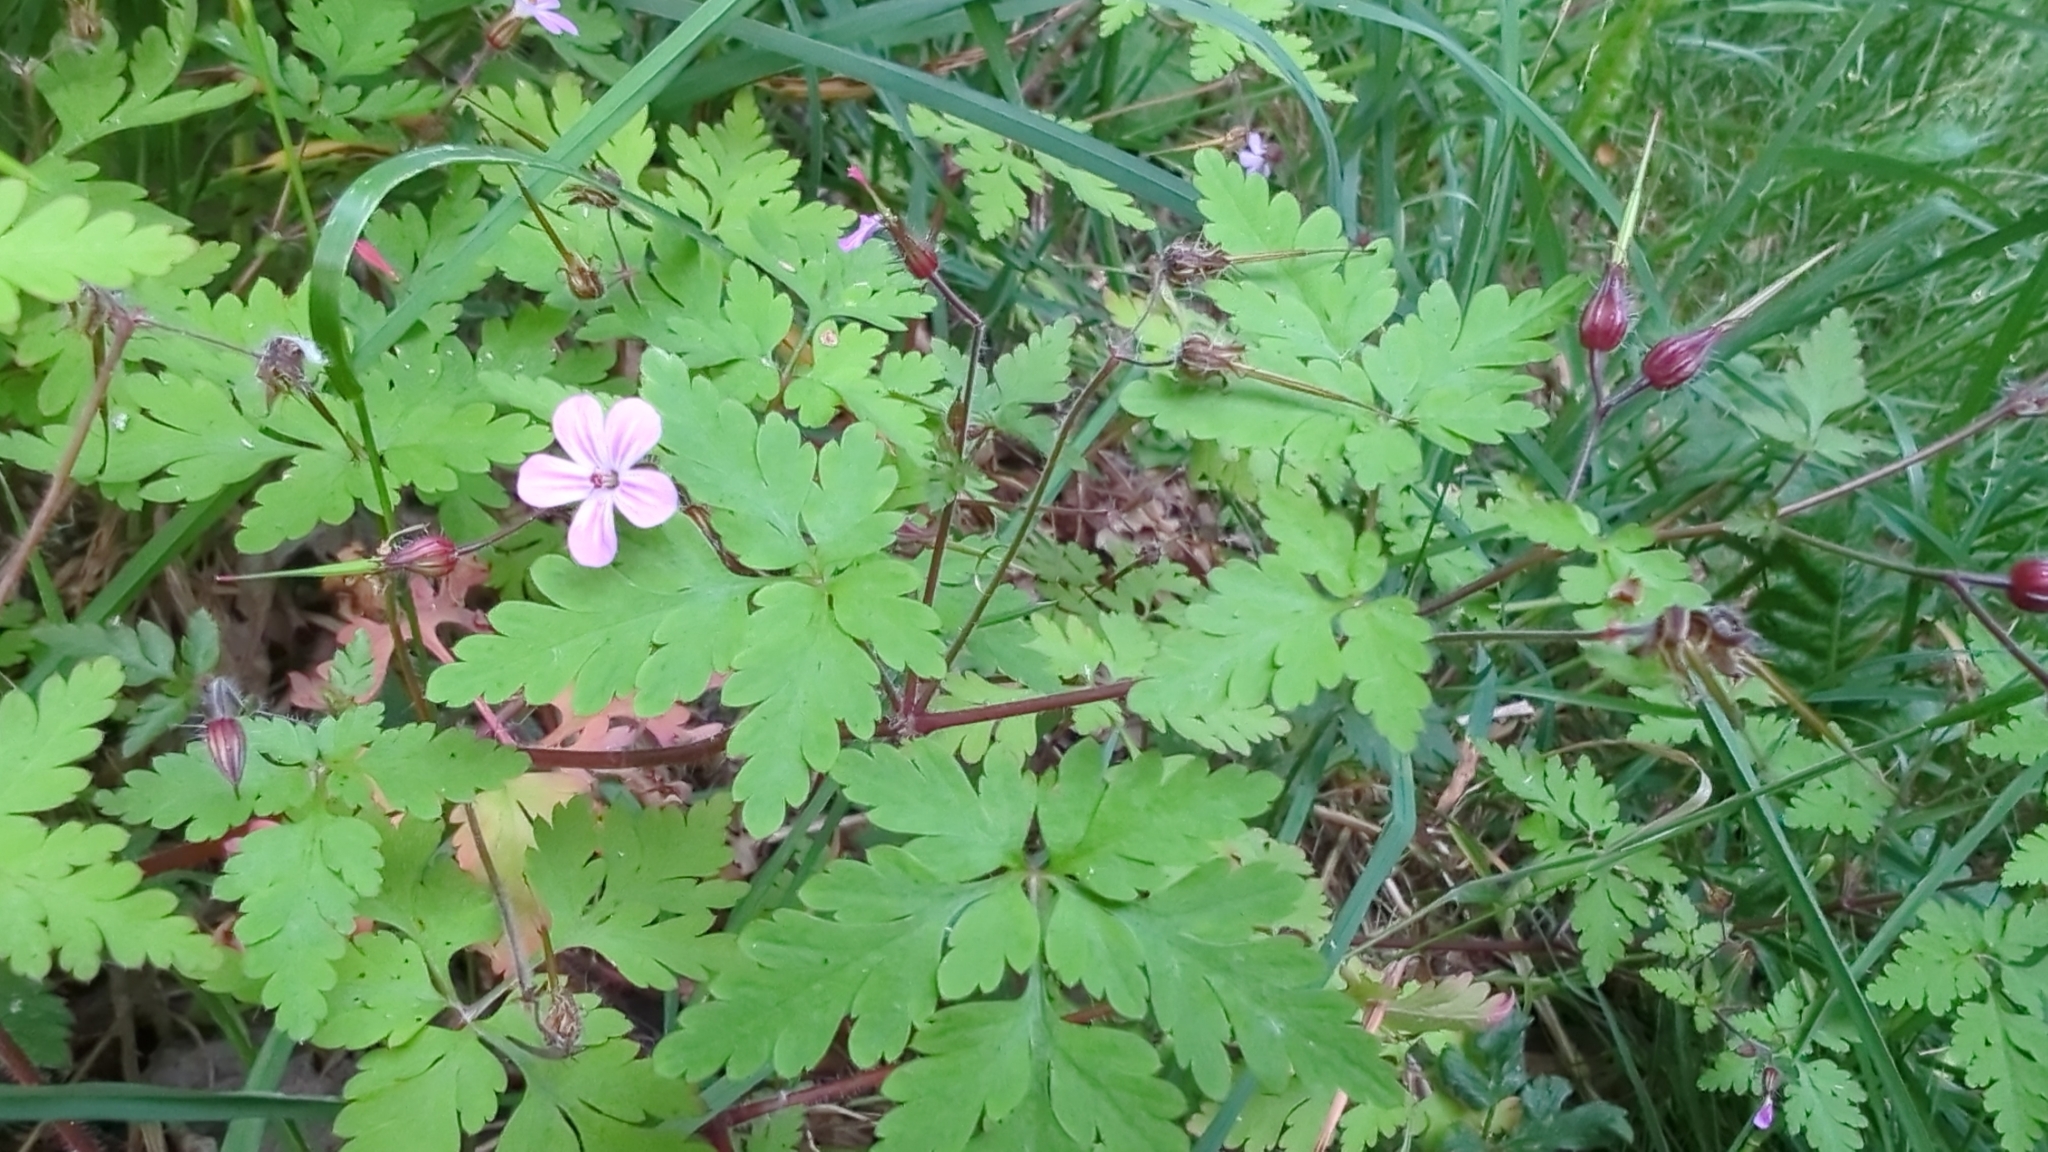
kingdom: Plantae
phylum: Tracheophyta
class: Magnoliopsida
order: Geraniales
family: Geraniaceae
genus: Geranium
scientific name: Geranium robertianum
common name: Herb-robert
